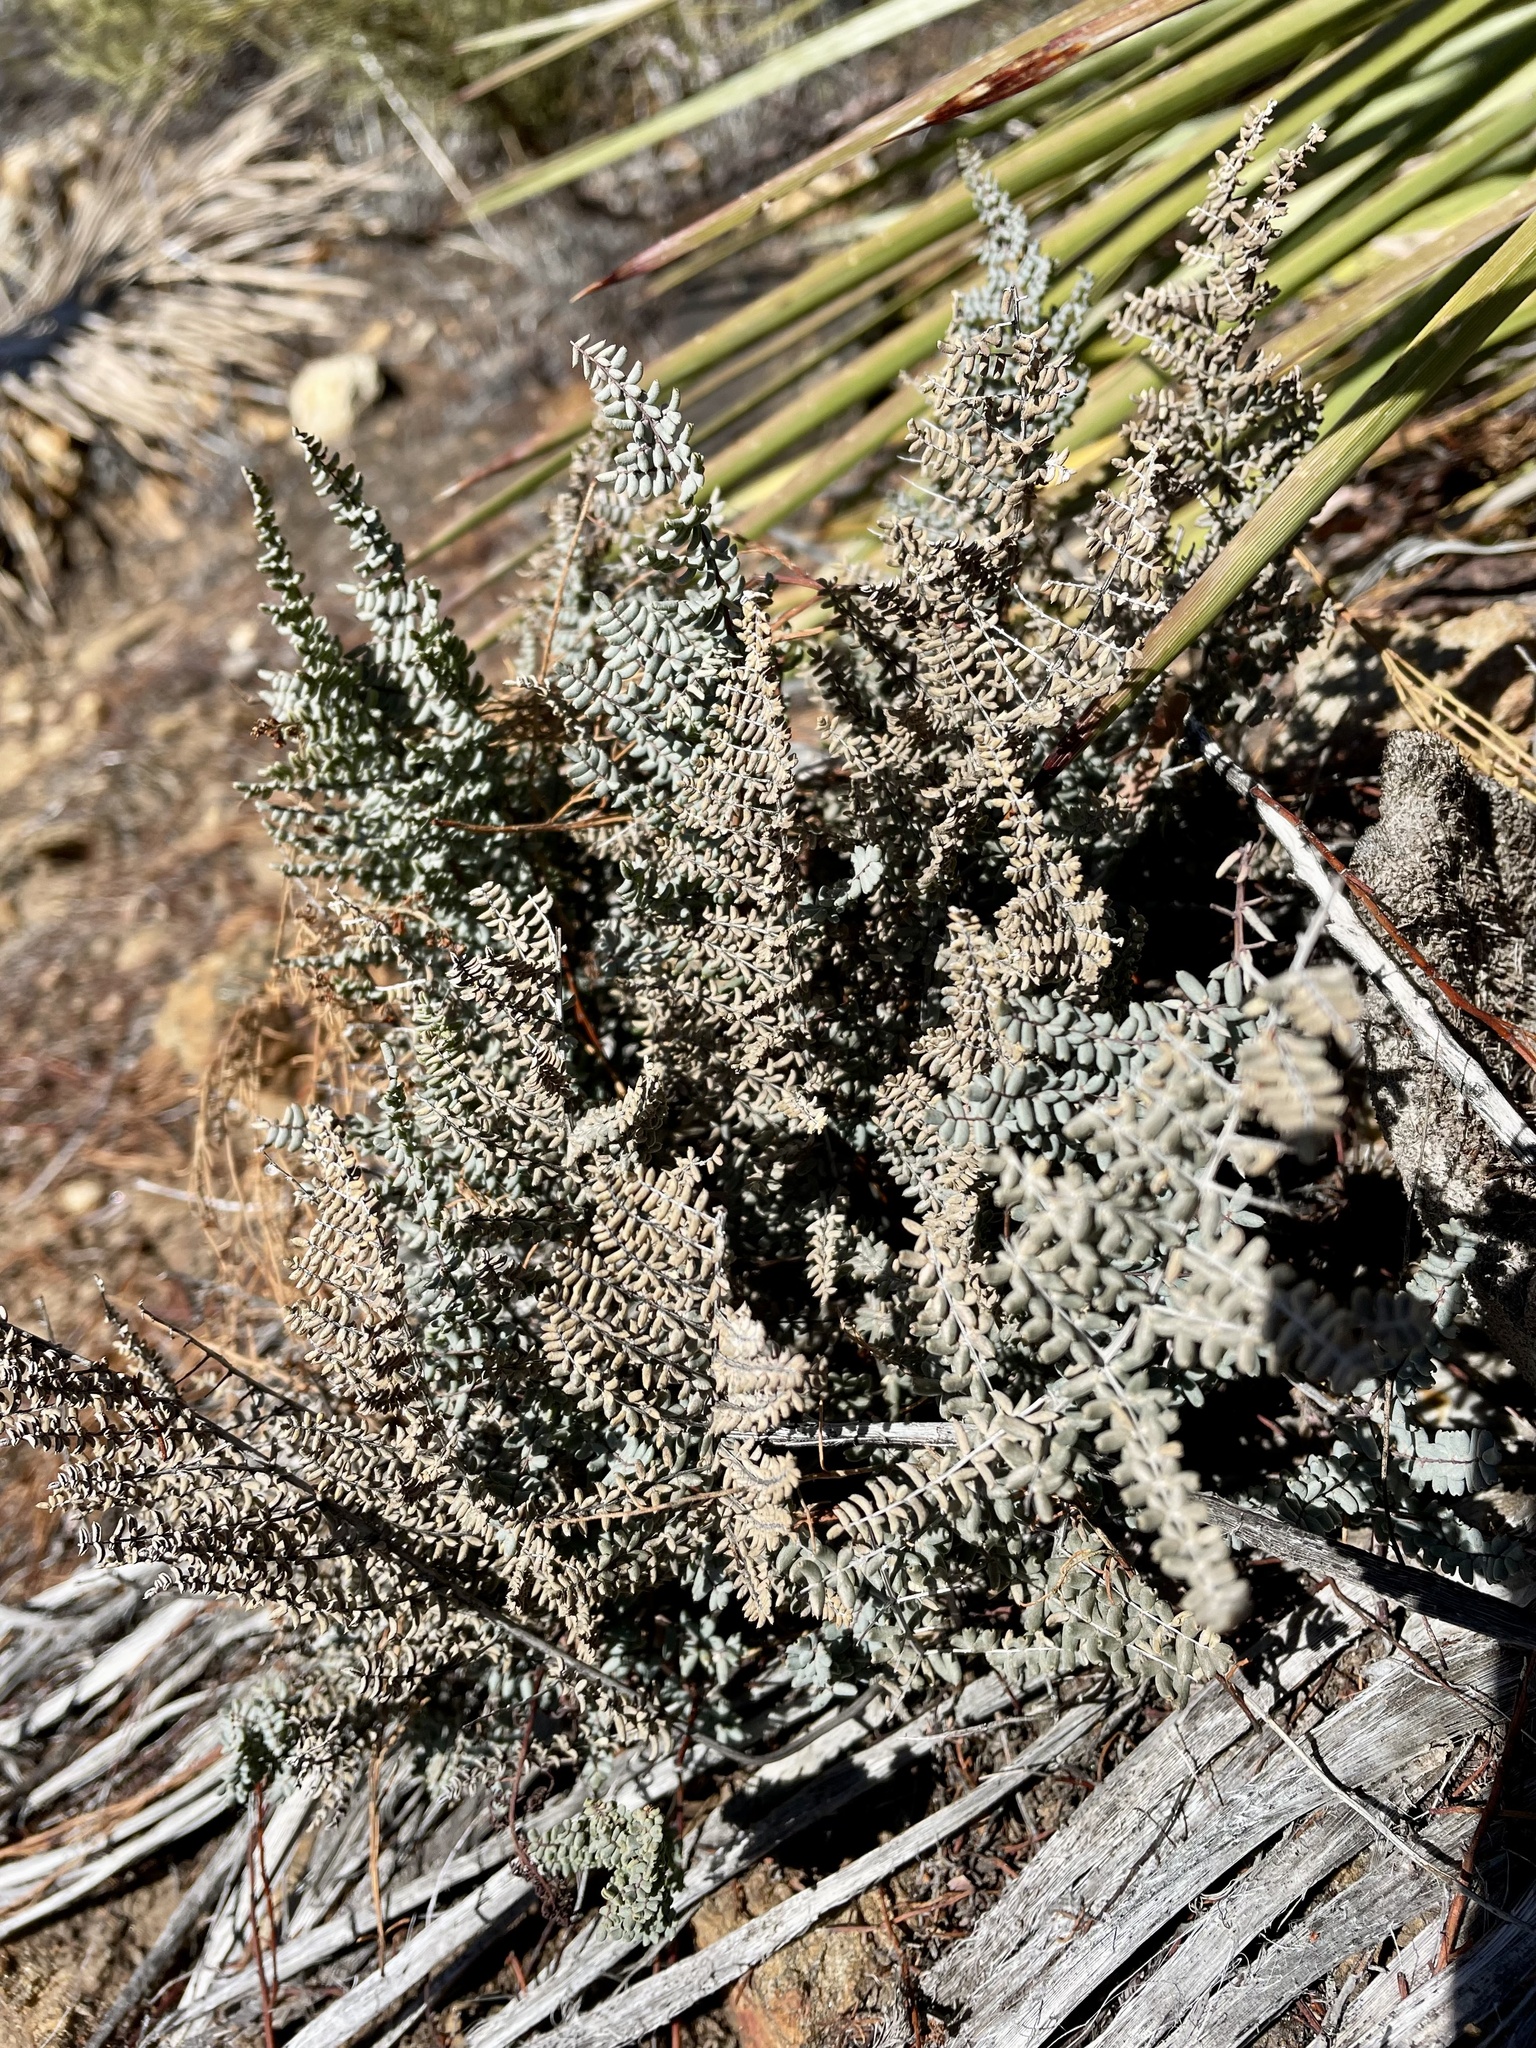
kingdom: Plantae
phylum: Tracheophyta
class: Polypodiopsida
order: Polypodiales
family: Pteridaceae
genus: Pellaea
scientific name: Pellaea mucronata
